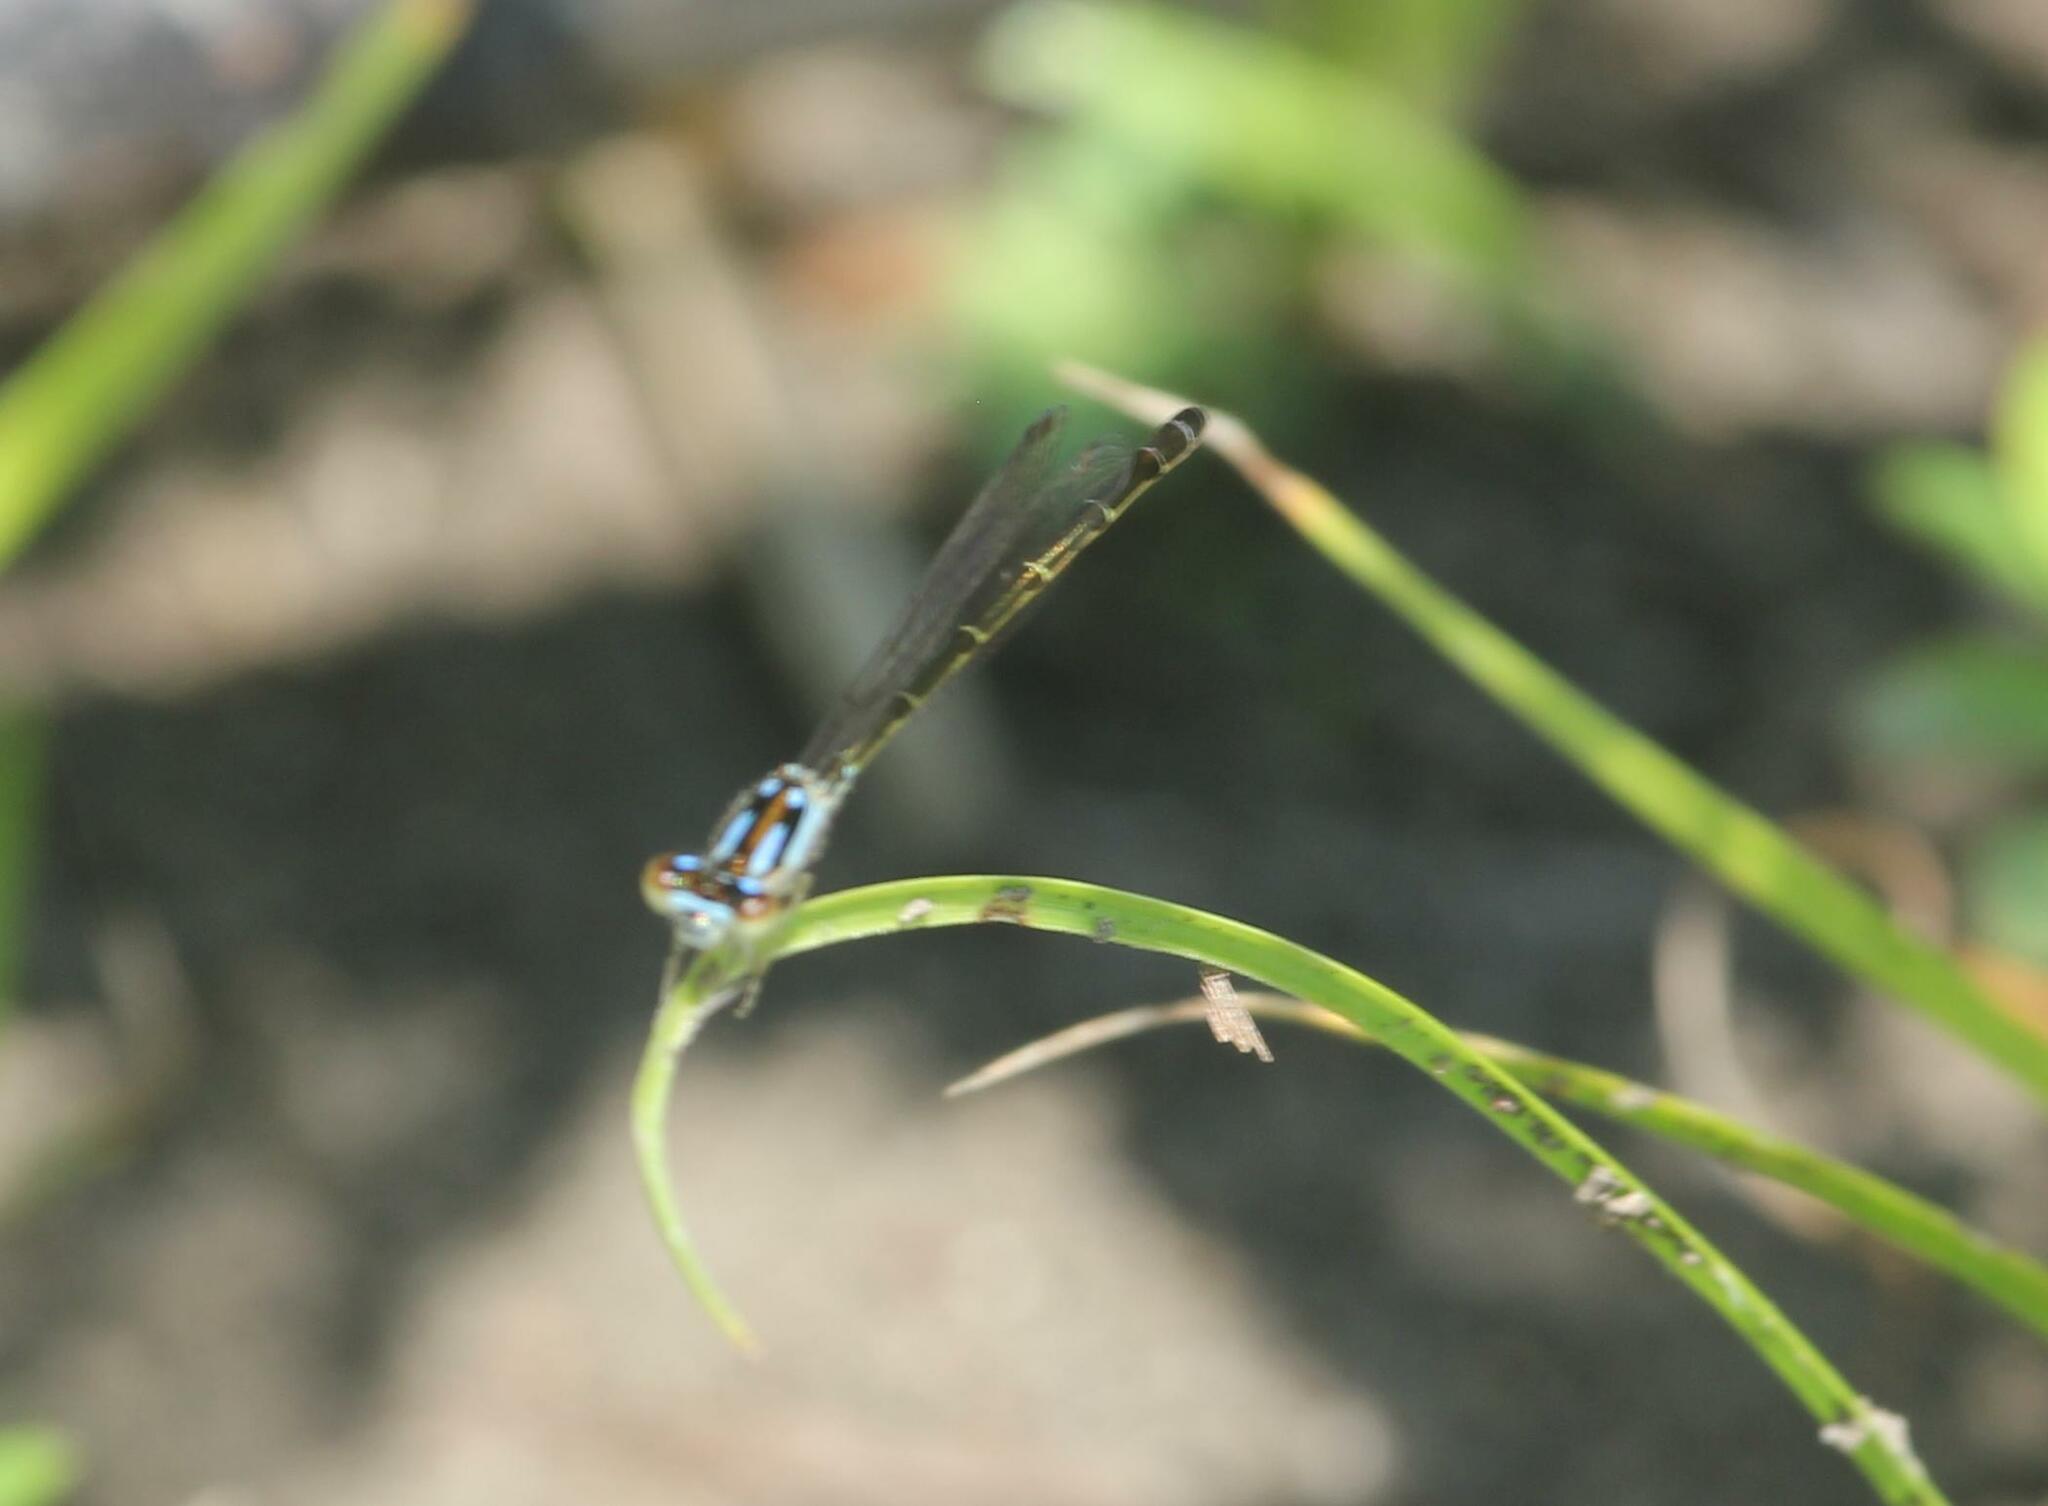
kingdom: Animalia
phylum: Arthropoda
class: Insecta
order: Odonata
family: Coenagrionidae
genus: Ischnura
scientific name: Ischnura posita
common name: Fragile forktail
